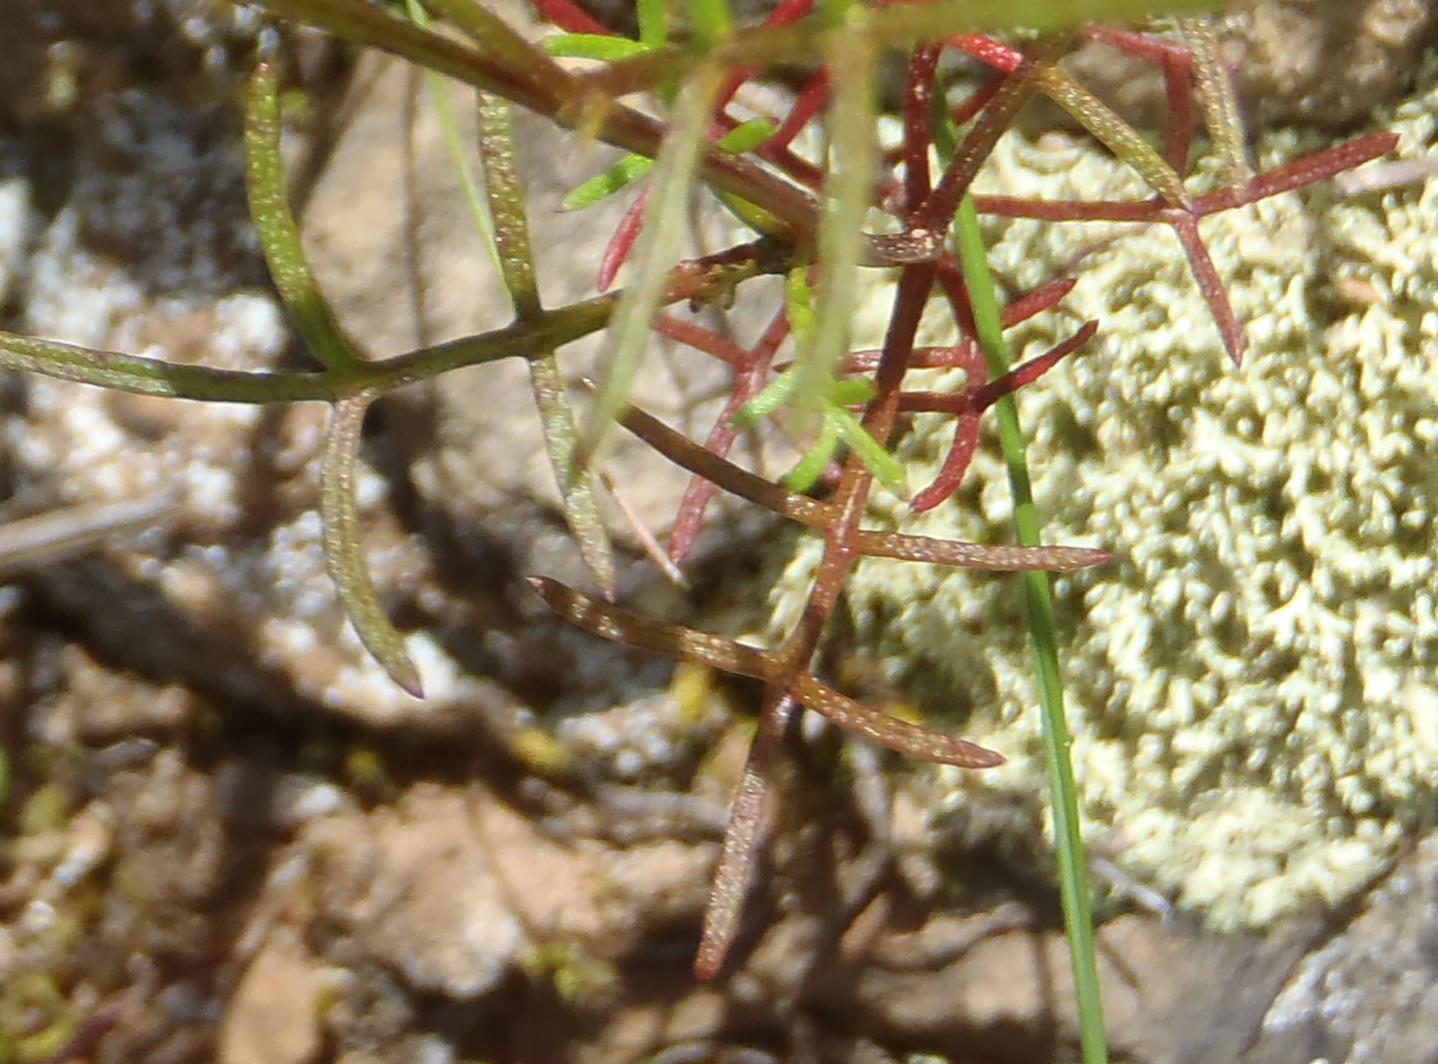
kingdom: Plantae
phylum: Tracheophyta
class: Magnoliopsida
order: Asterales
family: Asteraceae
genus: Ursinia
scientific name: Ursinia anthemoides
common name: Ursinia
